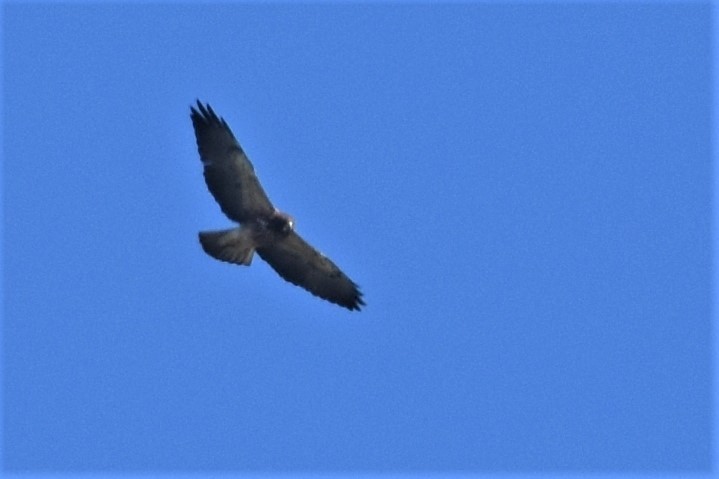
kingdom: Animalia
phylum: Chordata
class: Aves
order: Accipitriformes
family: Accipitridae
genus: Buteo
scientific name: Buteo swainsoni
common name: Swainson's hawk
